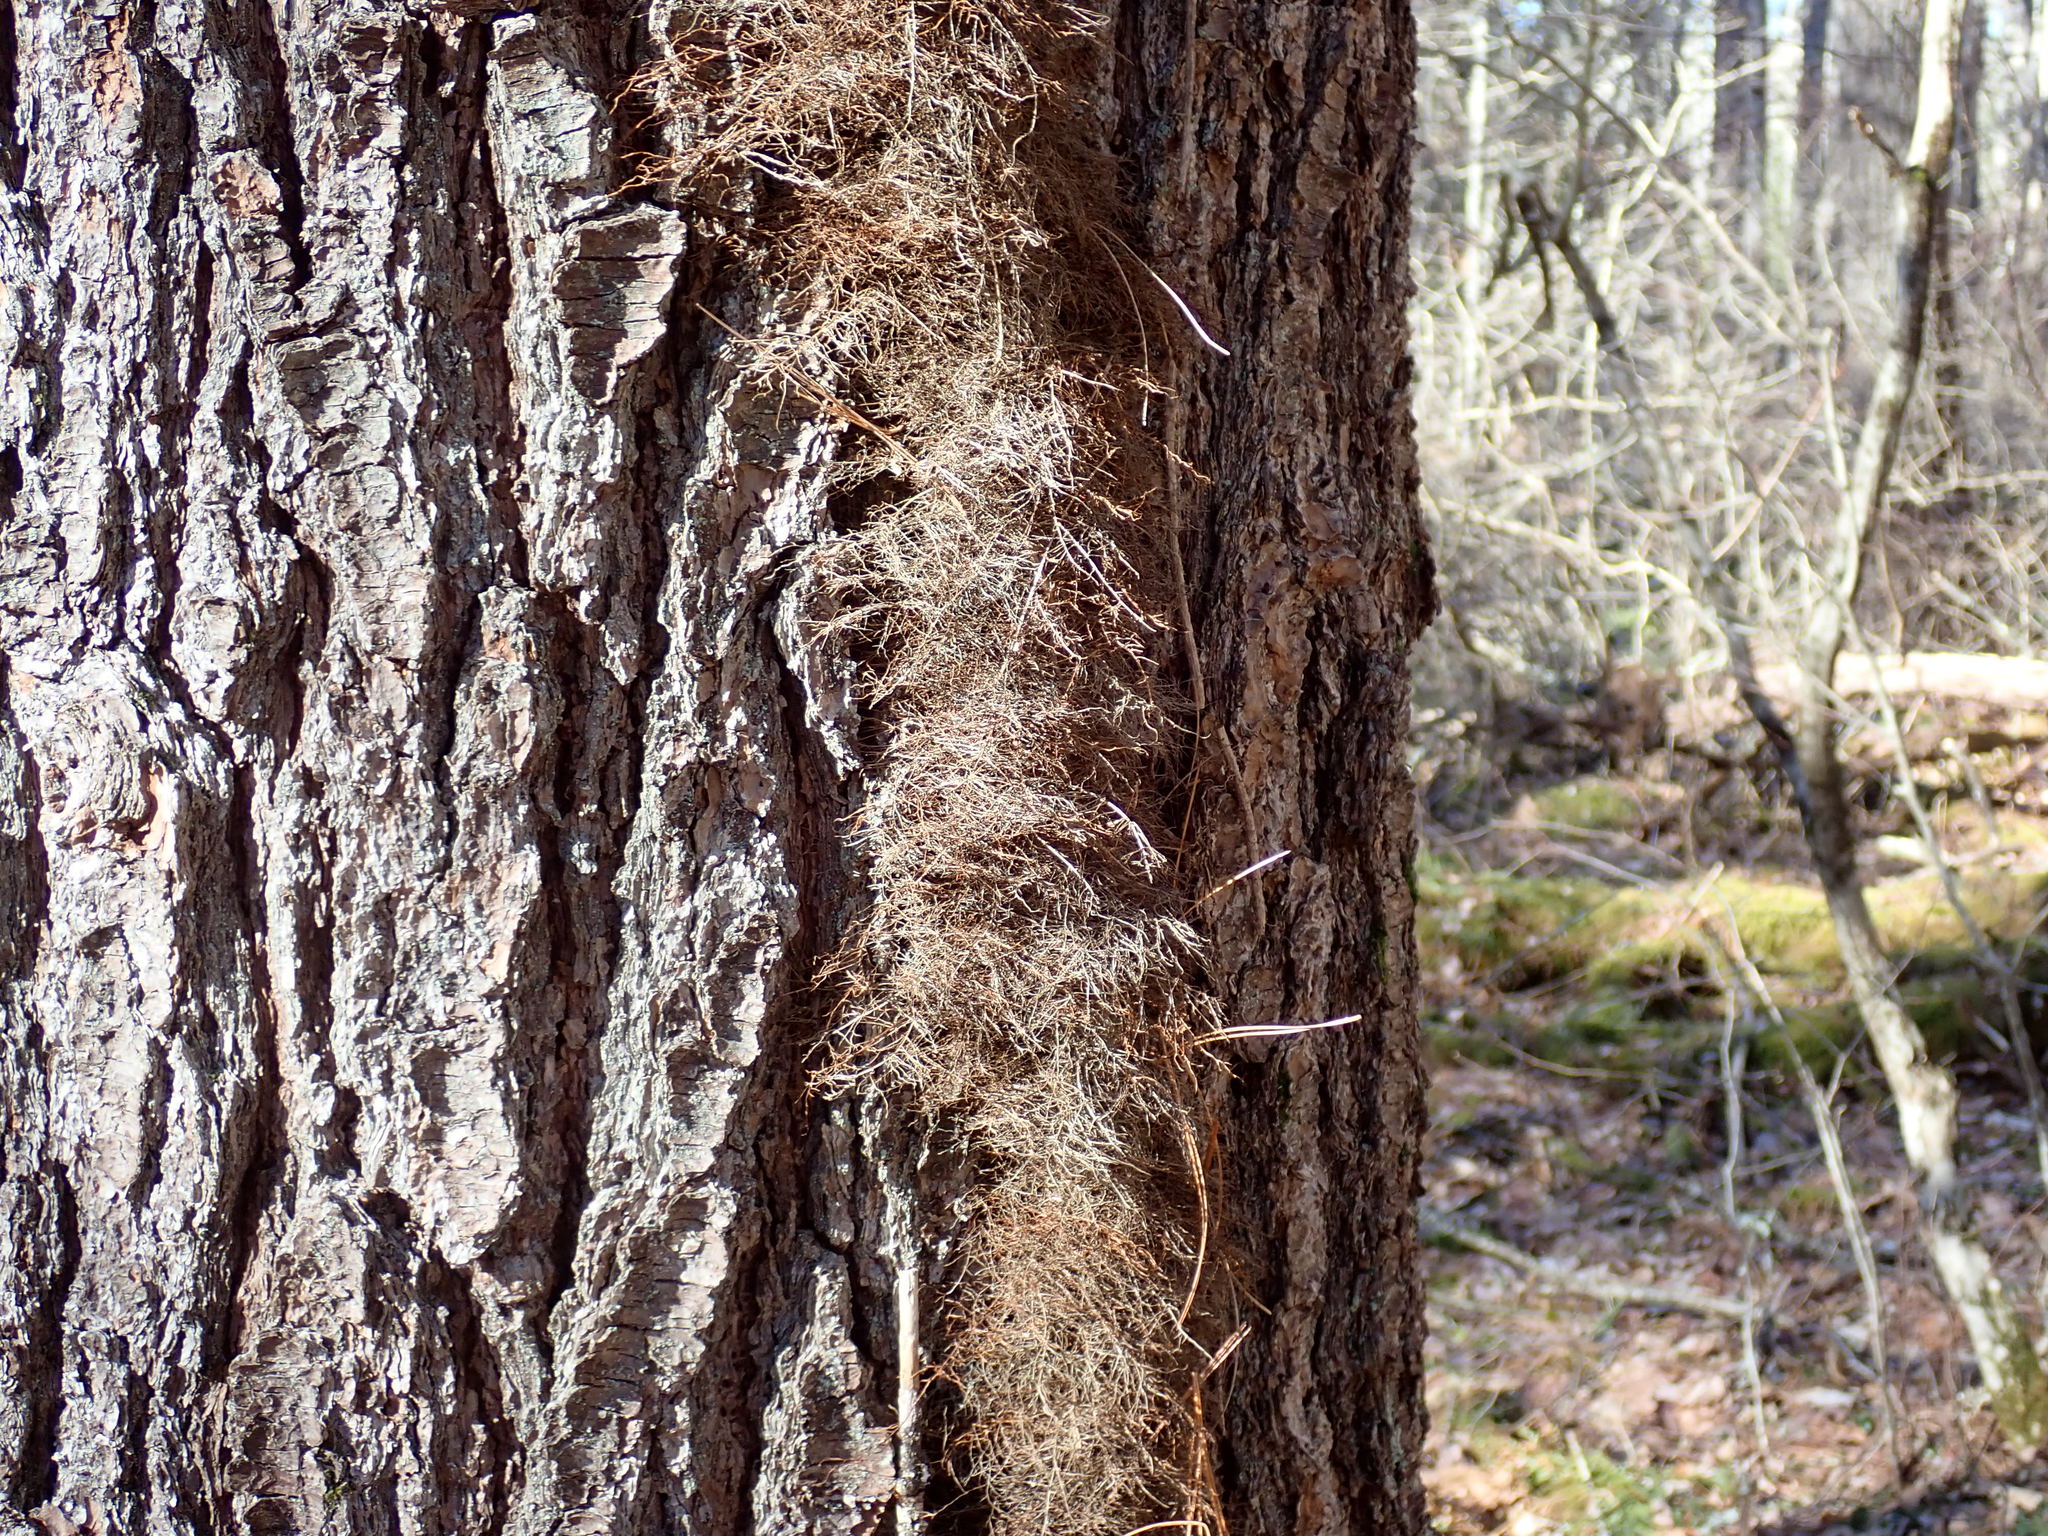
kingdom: Plantae
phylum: Tracheophyta
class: Magnoliopsida
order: Sapindales
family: Anacardiaceae
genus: Toxicodendron
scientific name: Toxicodendron radicans
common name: Poison ivy
